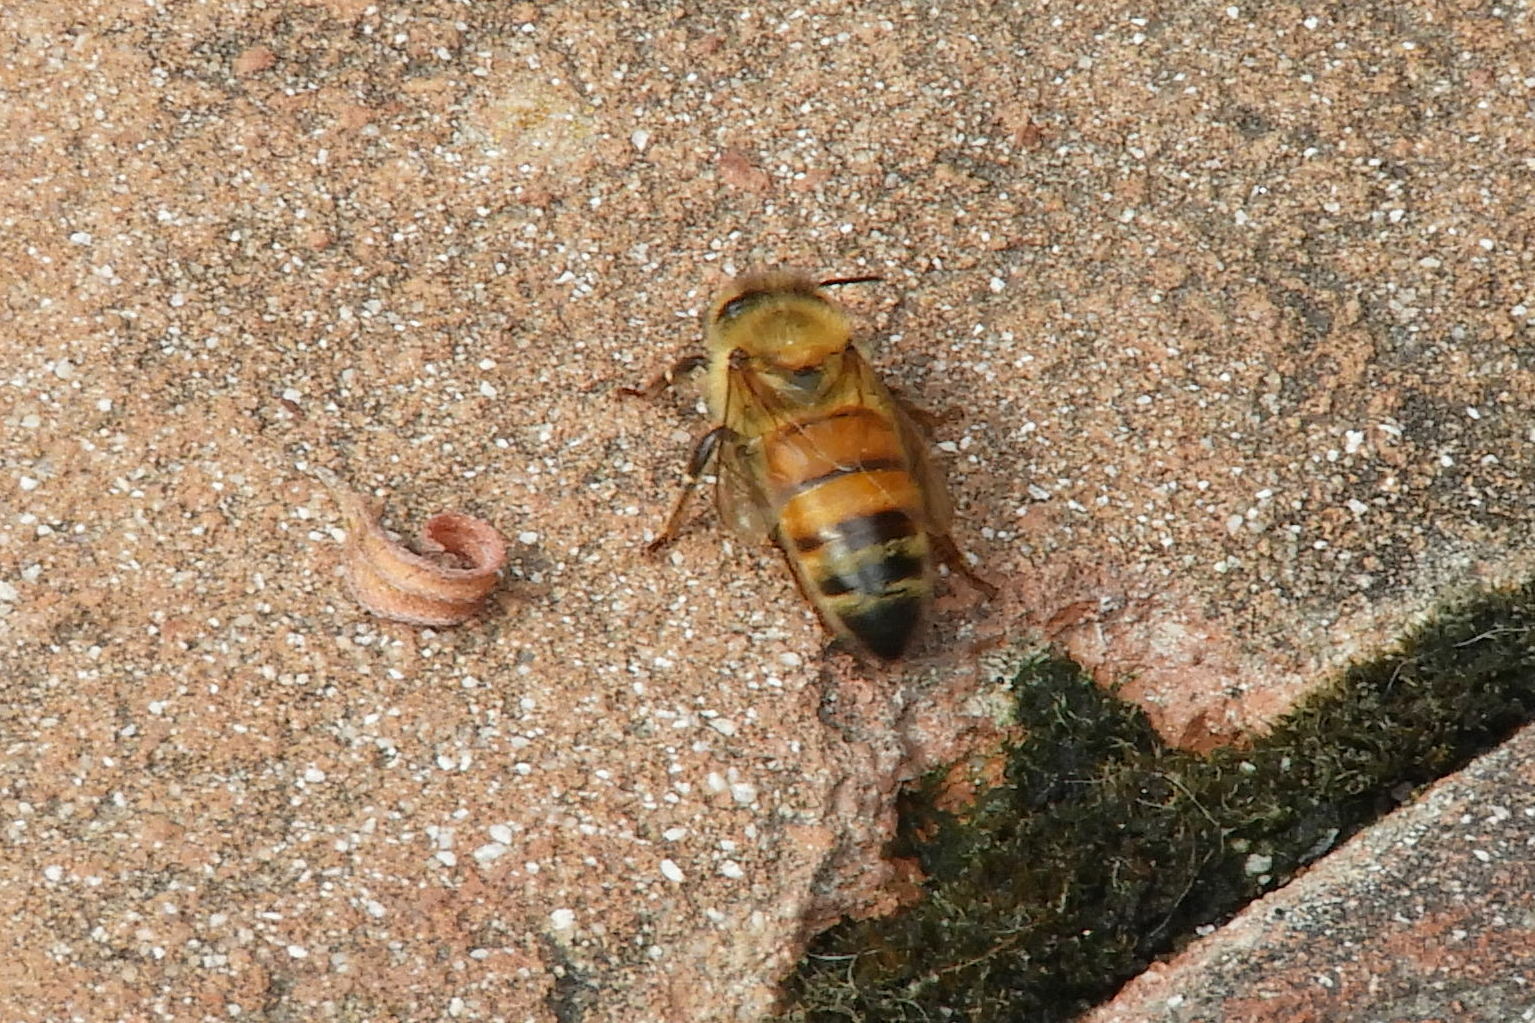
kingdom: Animalia
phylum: Arthropoda
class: Insecta
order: Hymenoptera
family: Apidae
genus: Apis
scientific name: Apis mellifera
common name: Honey bee
